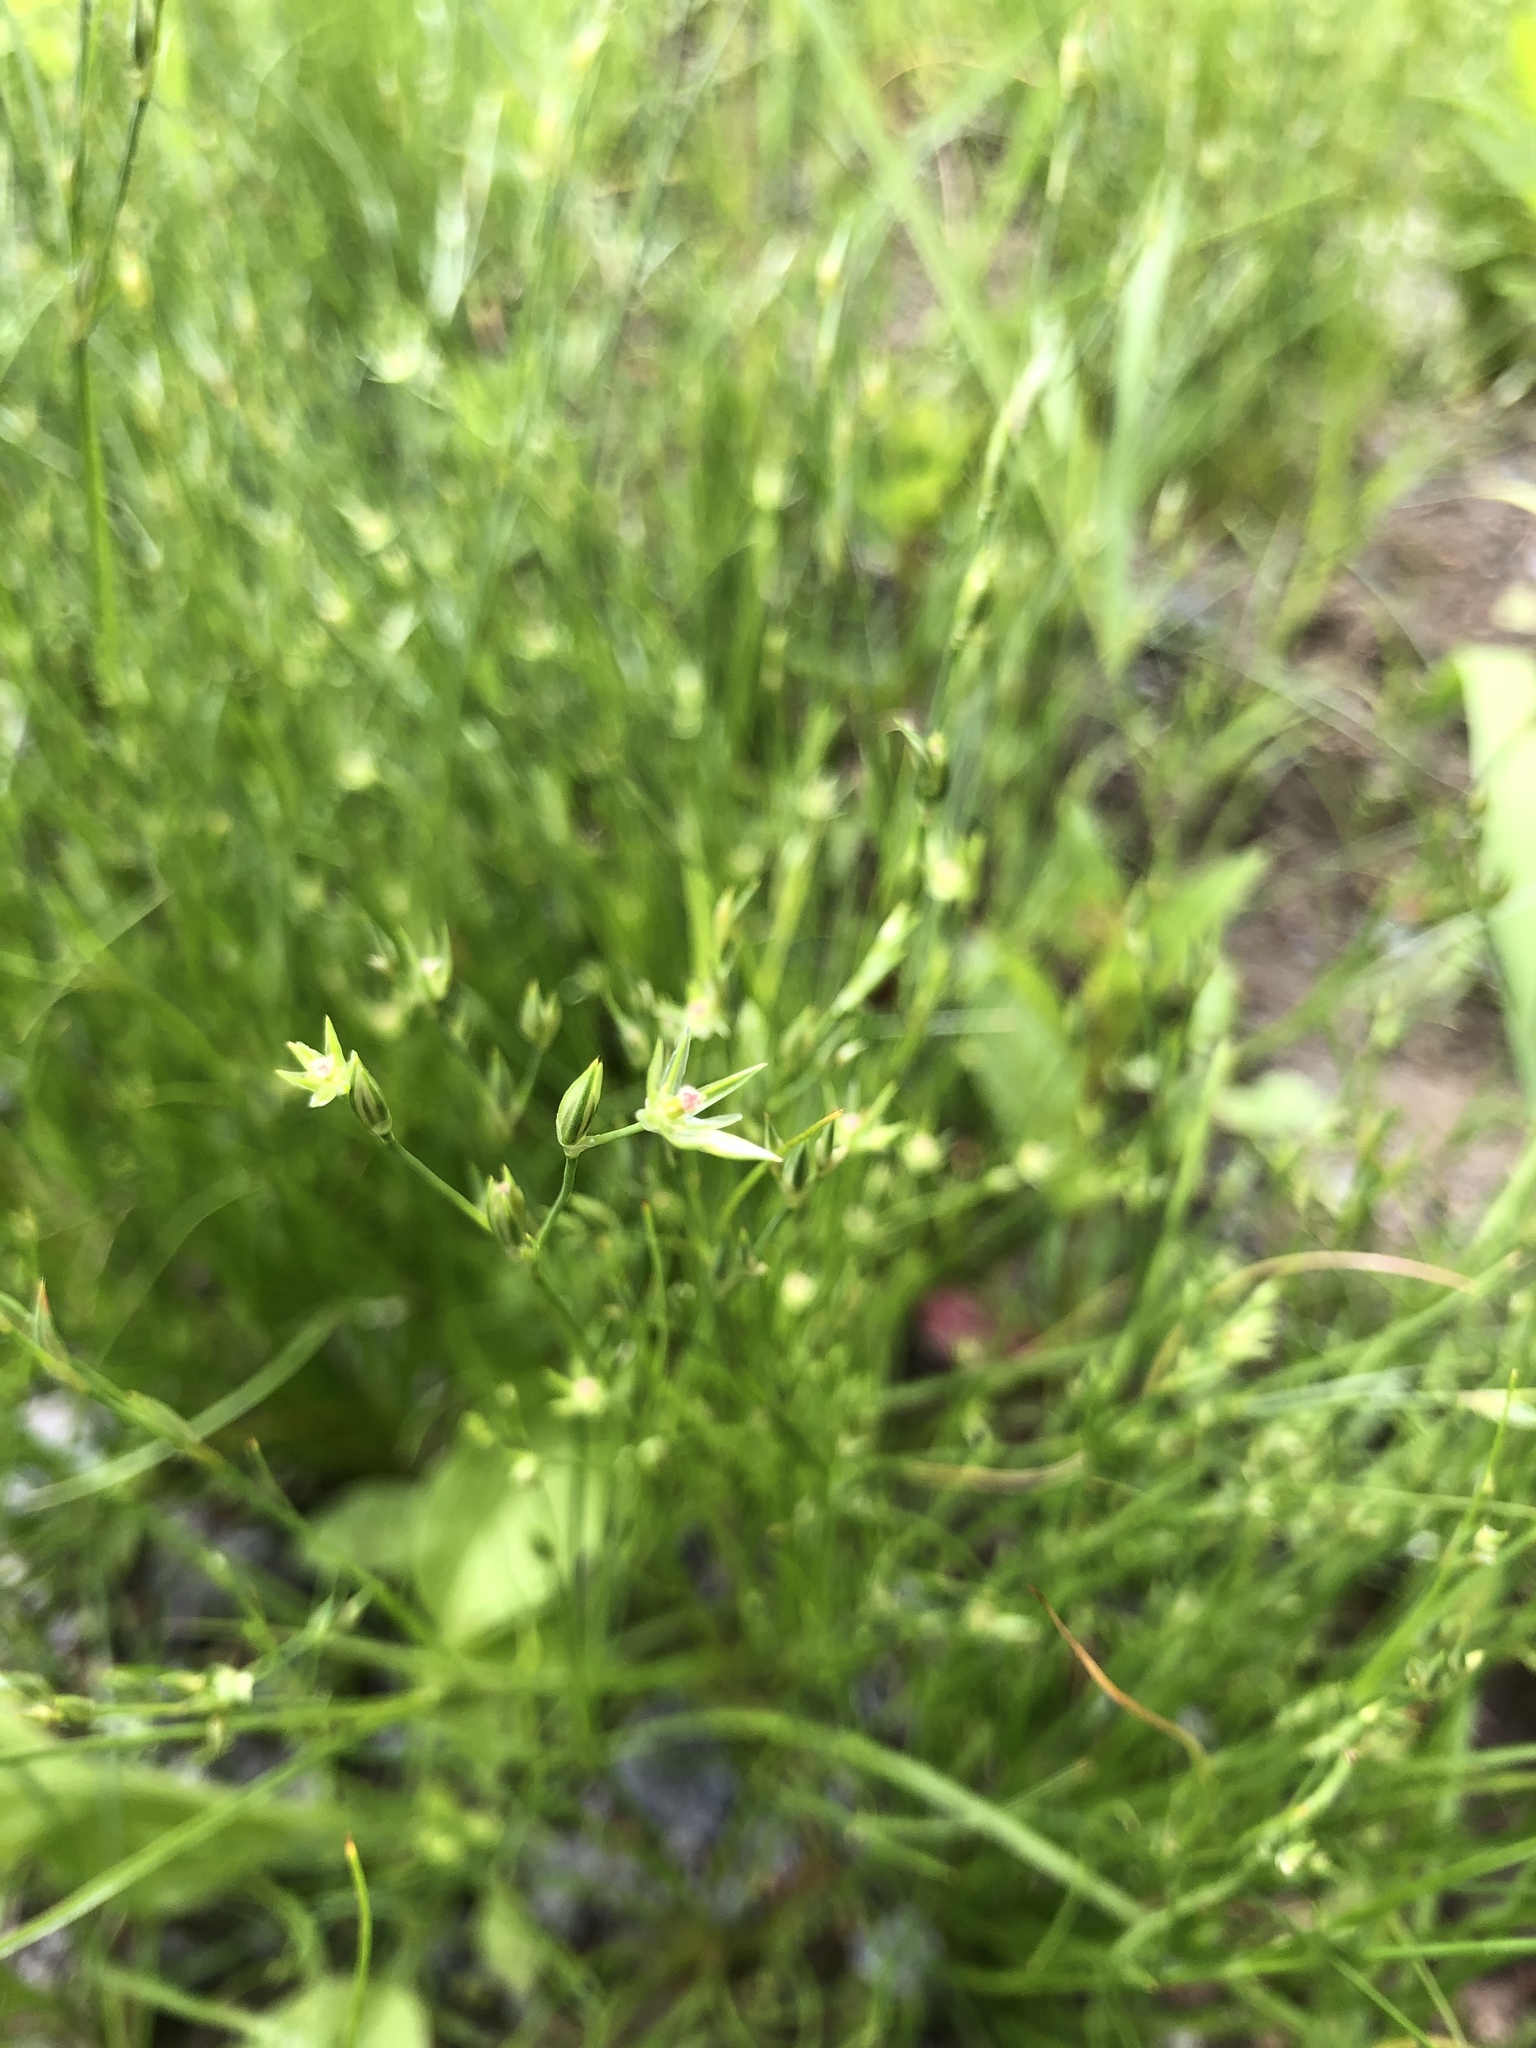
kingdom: Plantae
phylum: Tracheophyta
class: Liliopsida
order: Poales
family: Juncaceae
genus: Juncus
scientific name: Juncus bufonius
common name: Toad rush
